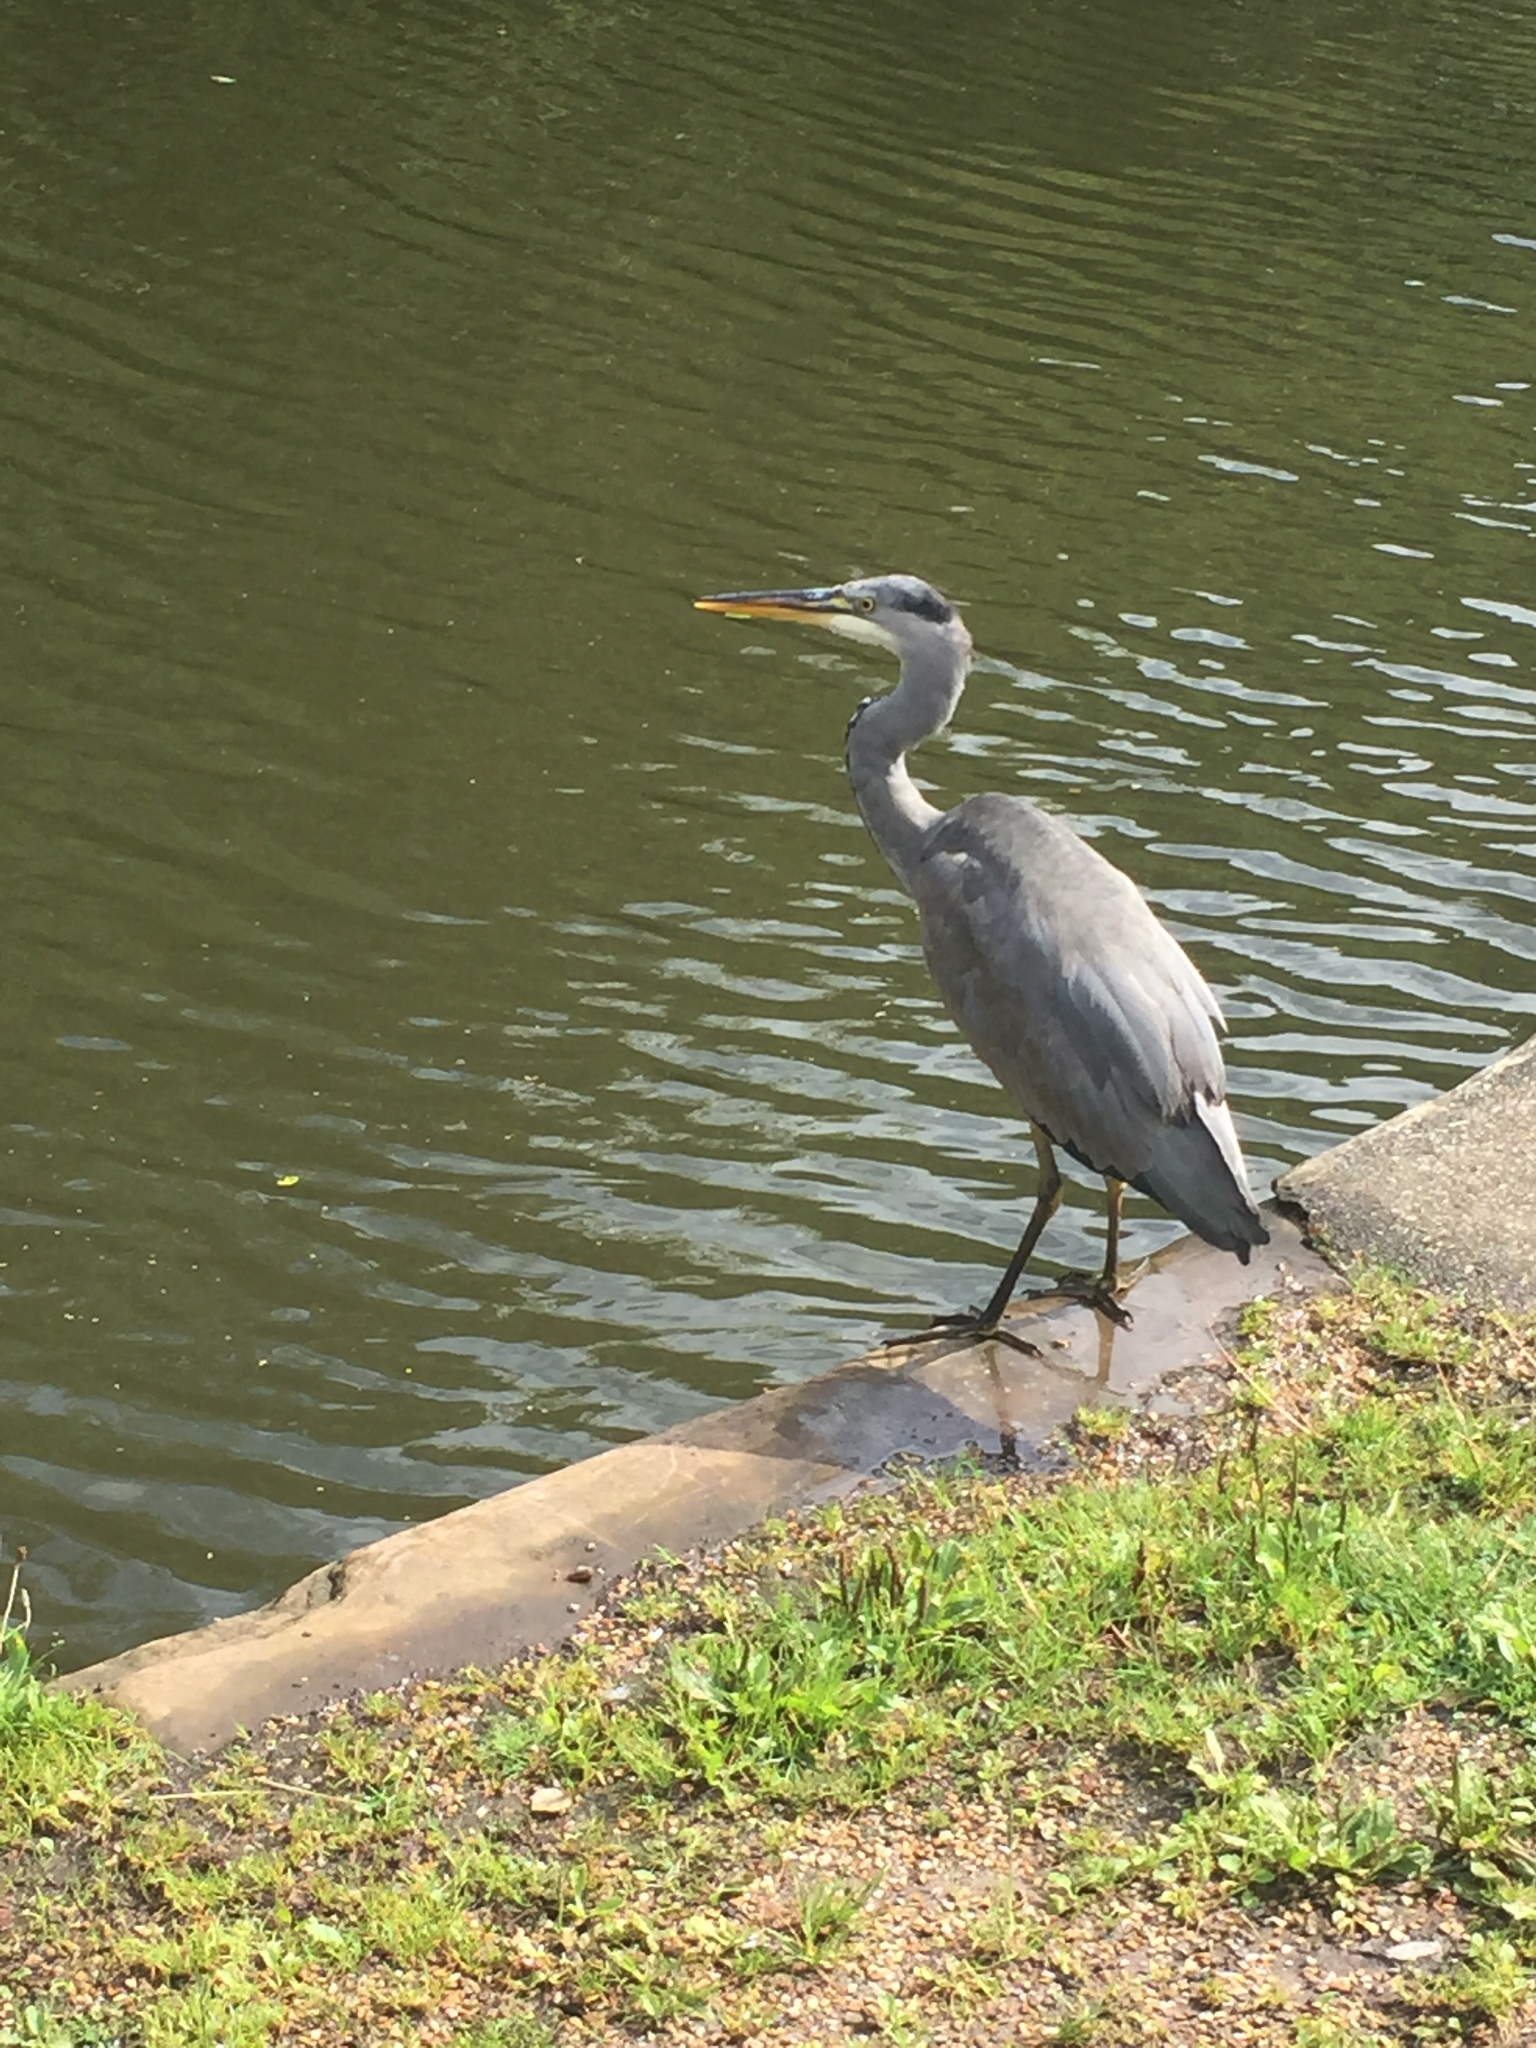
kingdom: Animalia
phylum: Chordata
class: Aves
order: Pelecaniformes
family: Ardeidae
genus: Ardea
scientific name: Ardea cinerea
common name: Grey heron
